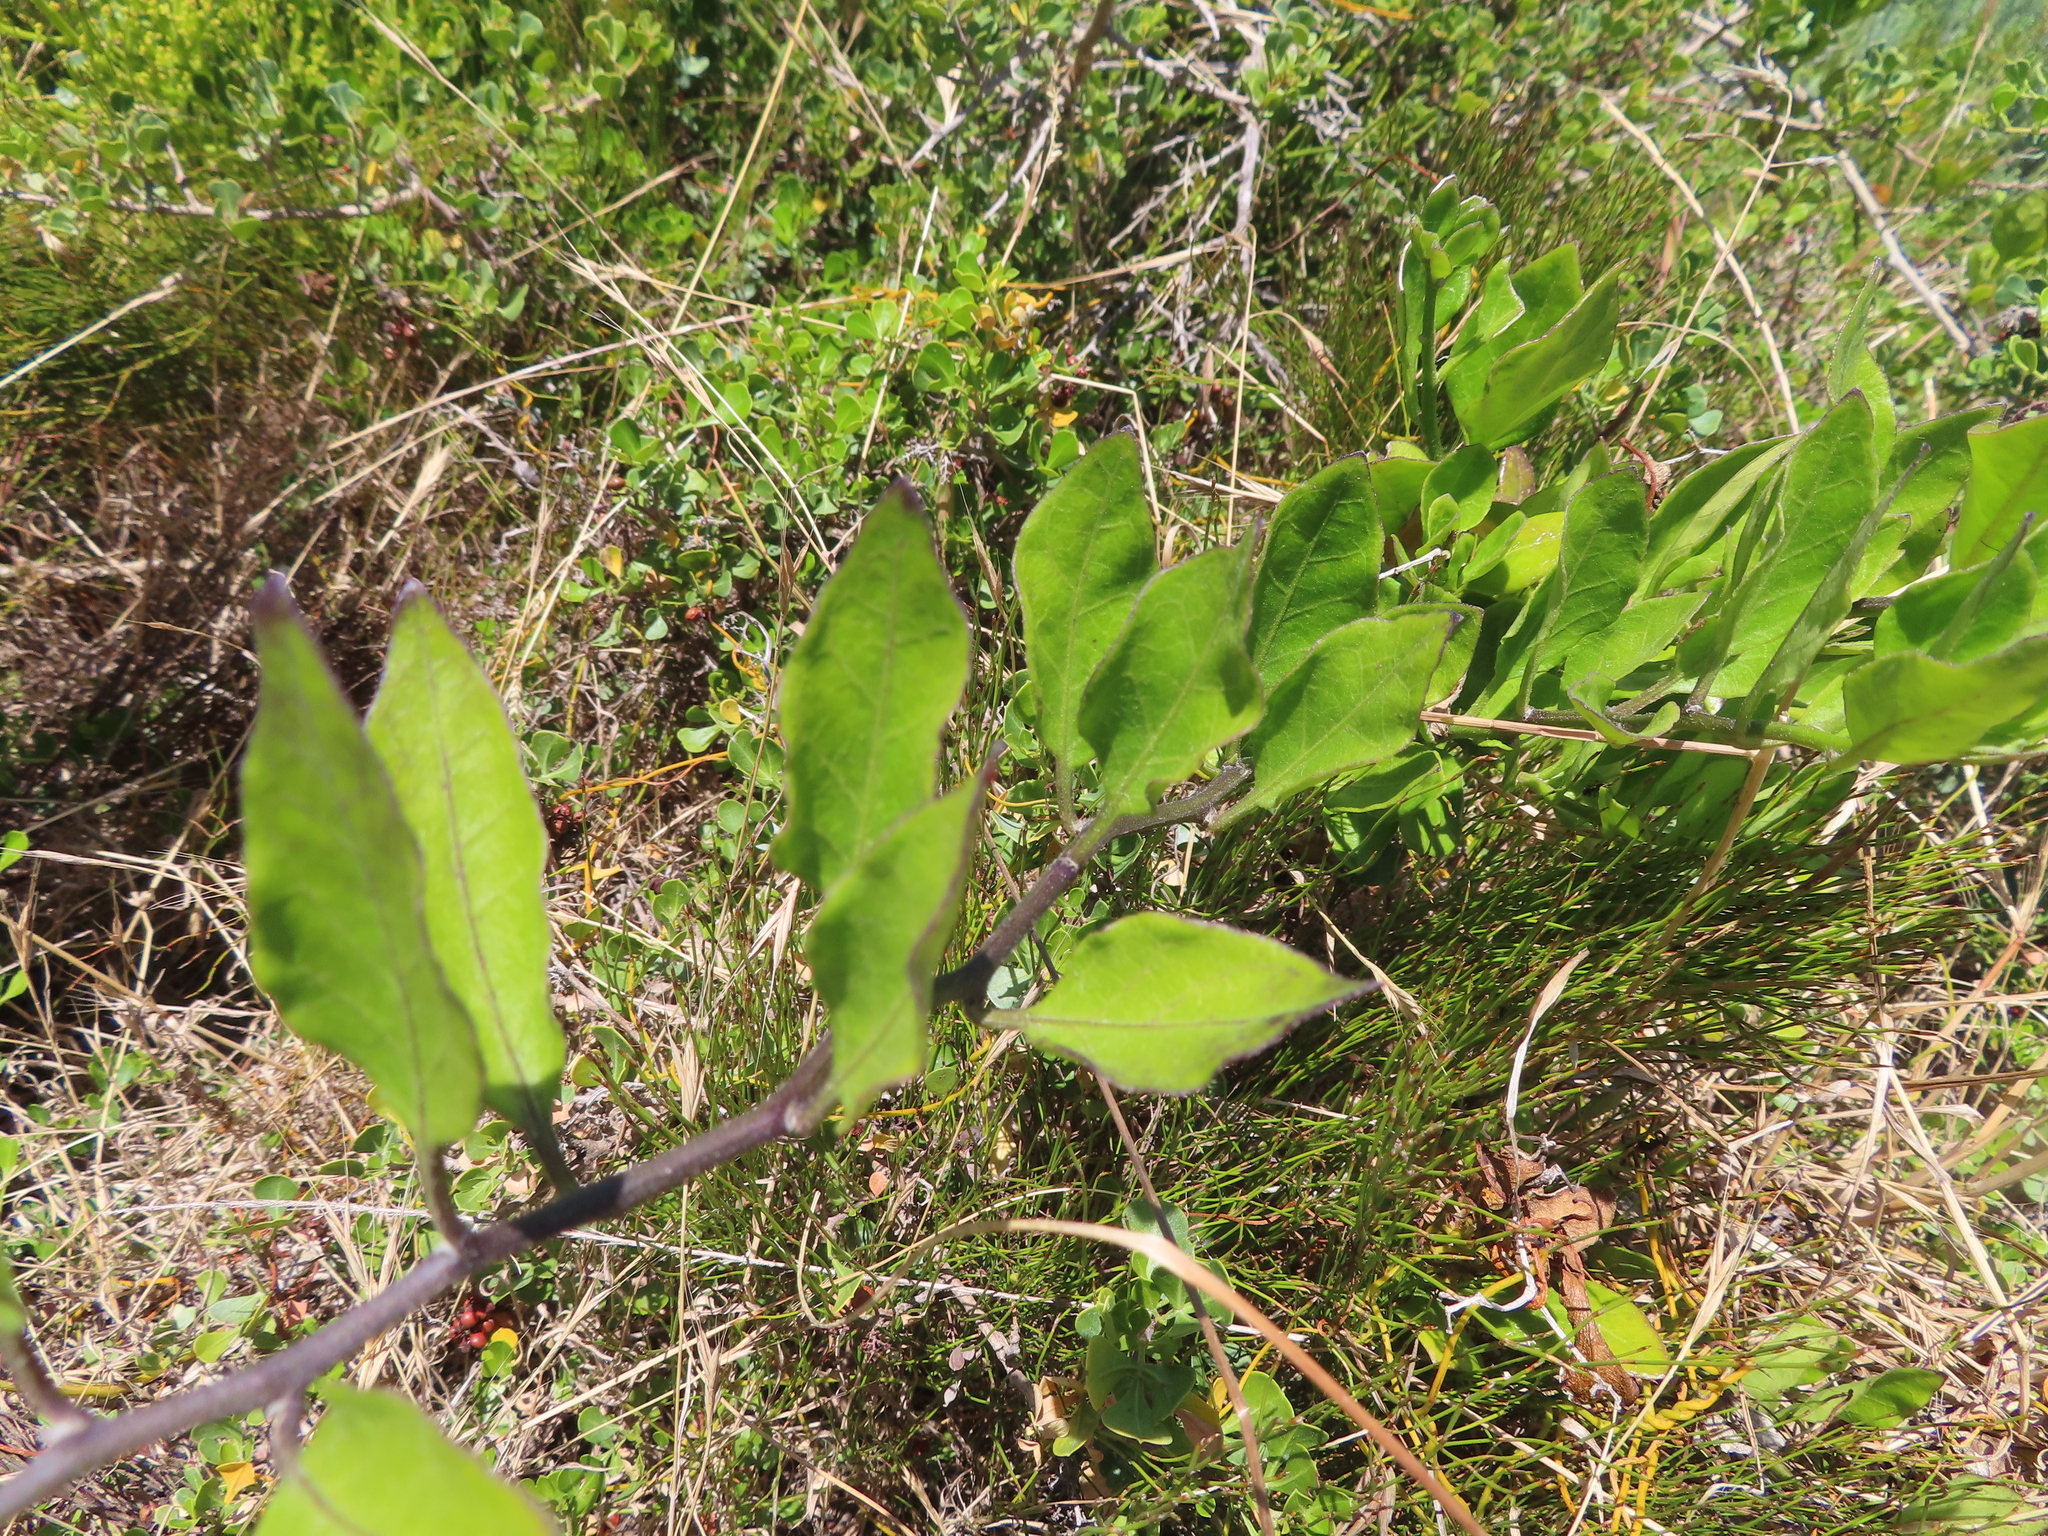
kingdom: Plantae
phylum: Tracheophyta
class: Magnoliopsida
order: Solanales
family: Solanaceae
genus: Solanum
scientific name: Solanum africanum
